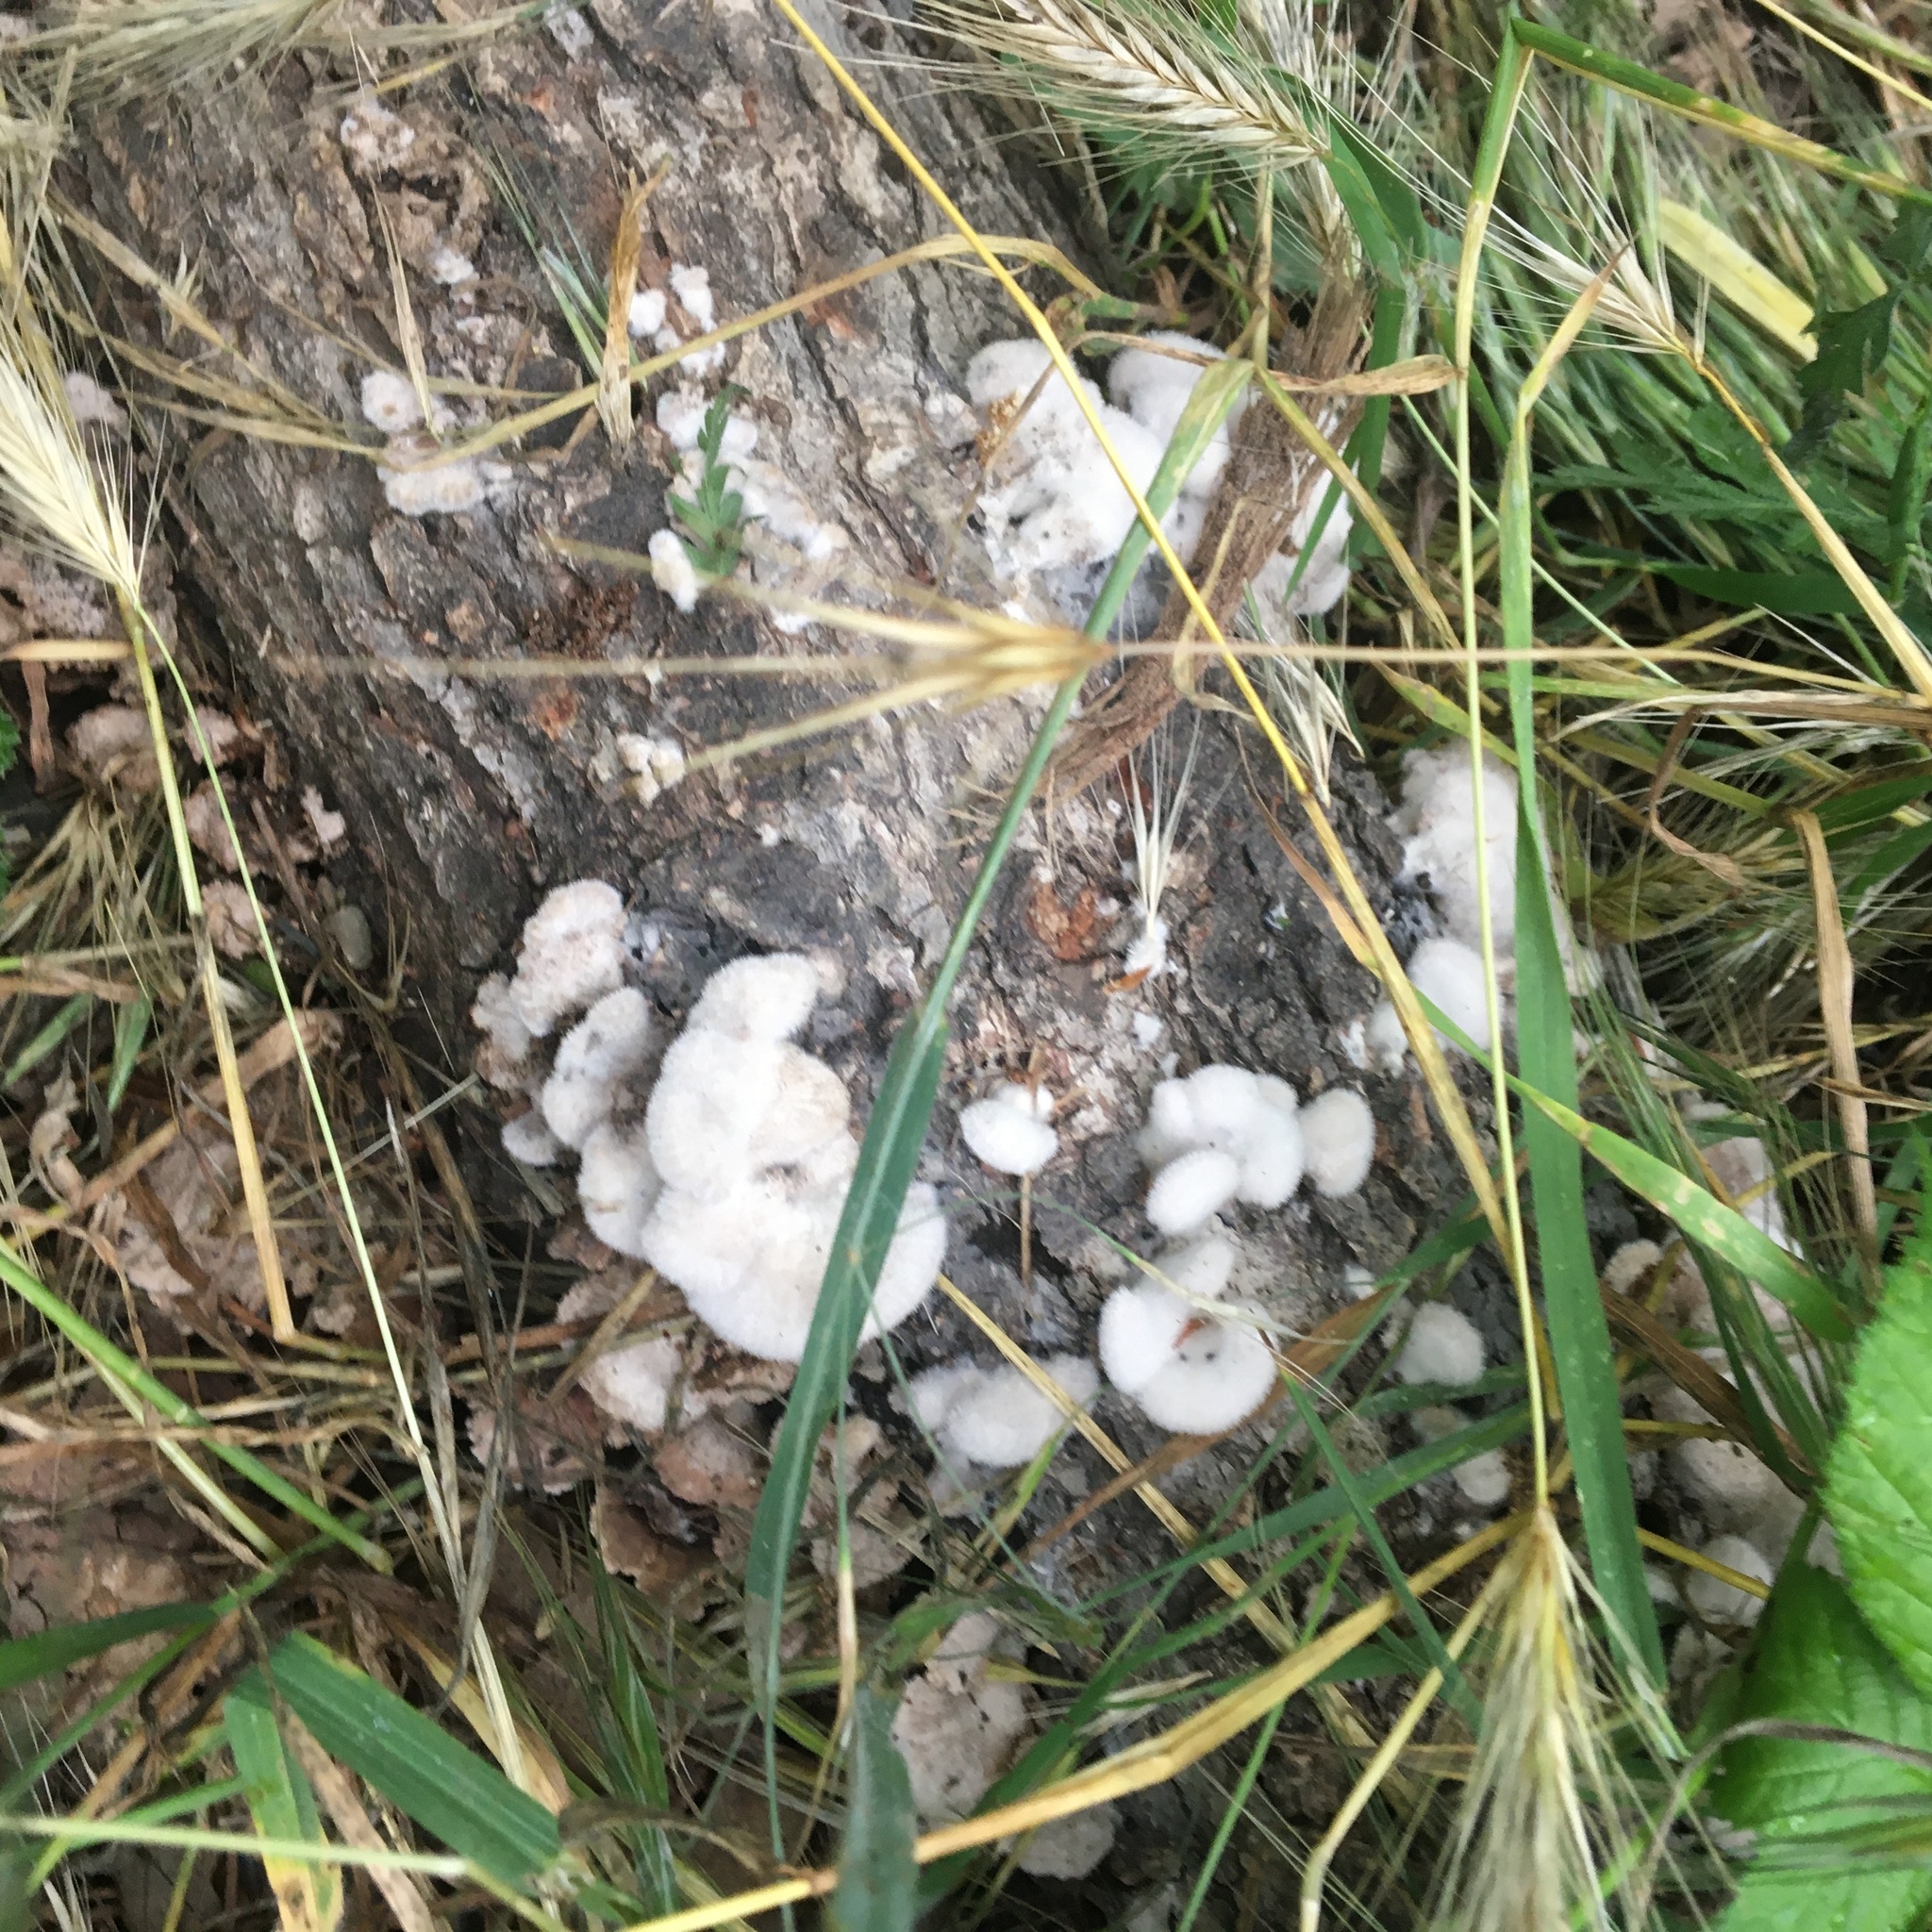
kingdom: Fungi
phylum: Basidiomycota
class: Agaricomycetes
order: Agaricales
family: Schizophyllaceae
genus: Schizophyllum
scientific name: Schizophyllum commune
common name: Common porecrust
